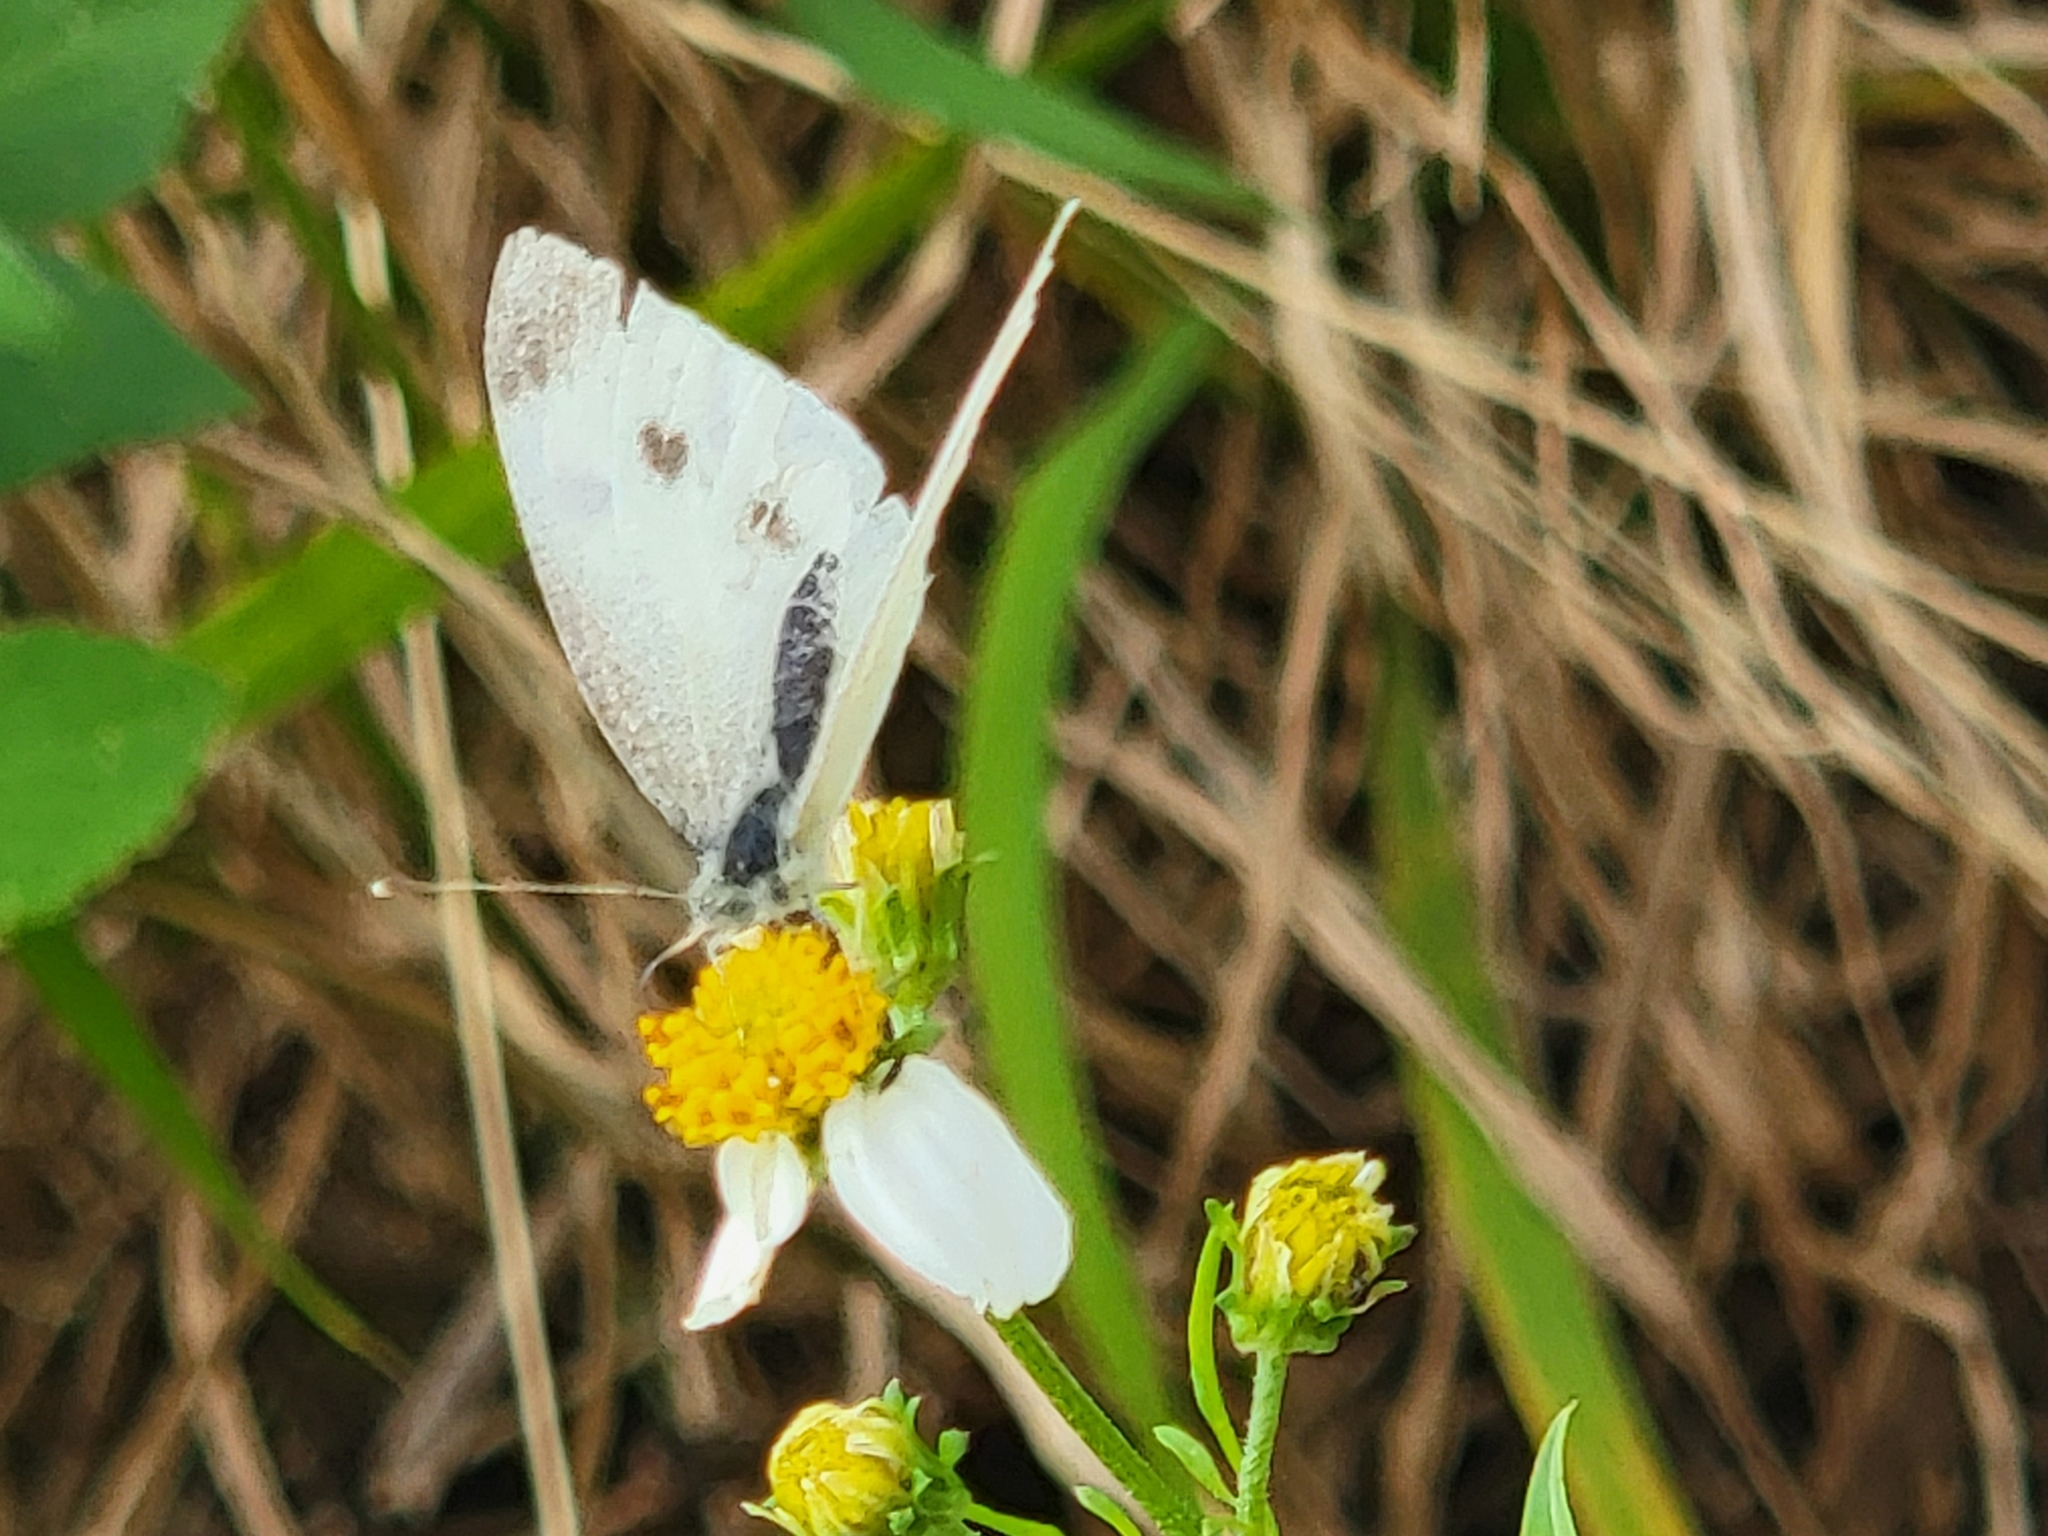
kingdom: Animalia
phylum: Arthropoda
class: Insecta
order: Lepidoptera
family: Pieridae
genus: Pieris
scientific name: Pieris rapae
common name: Small white
